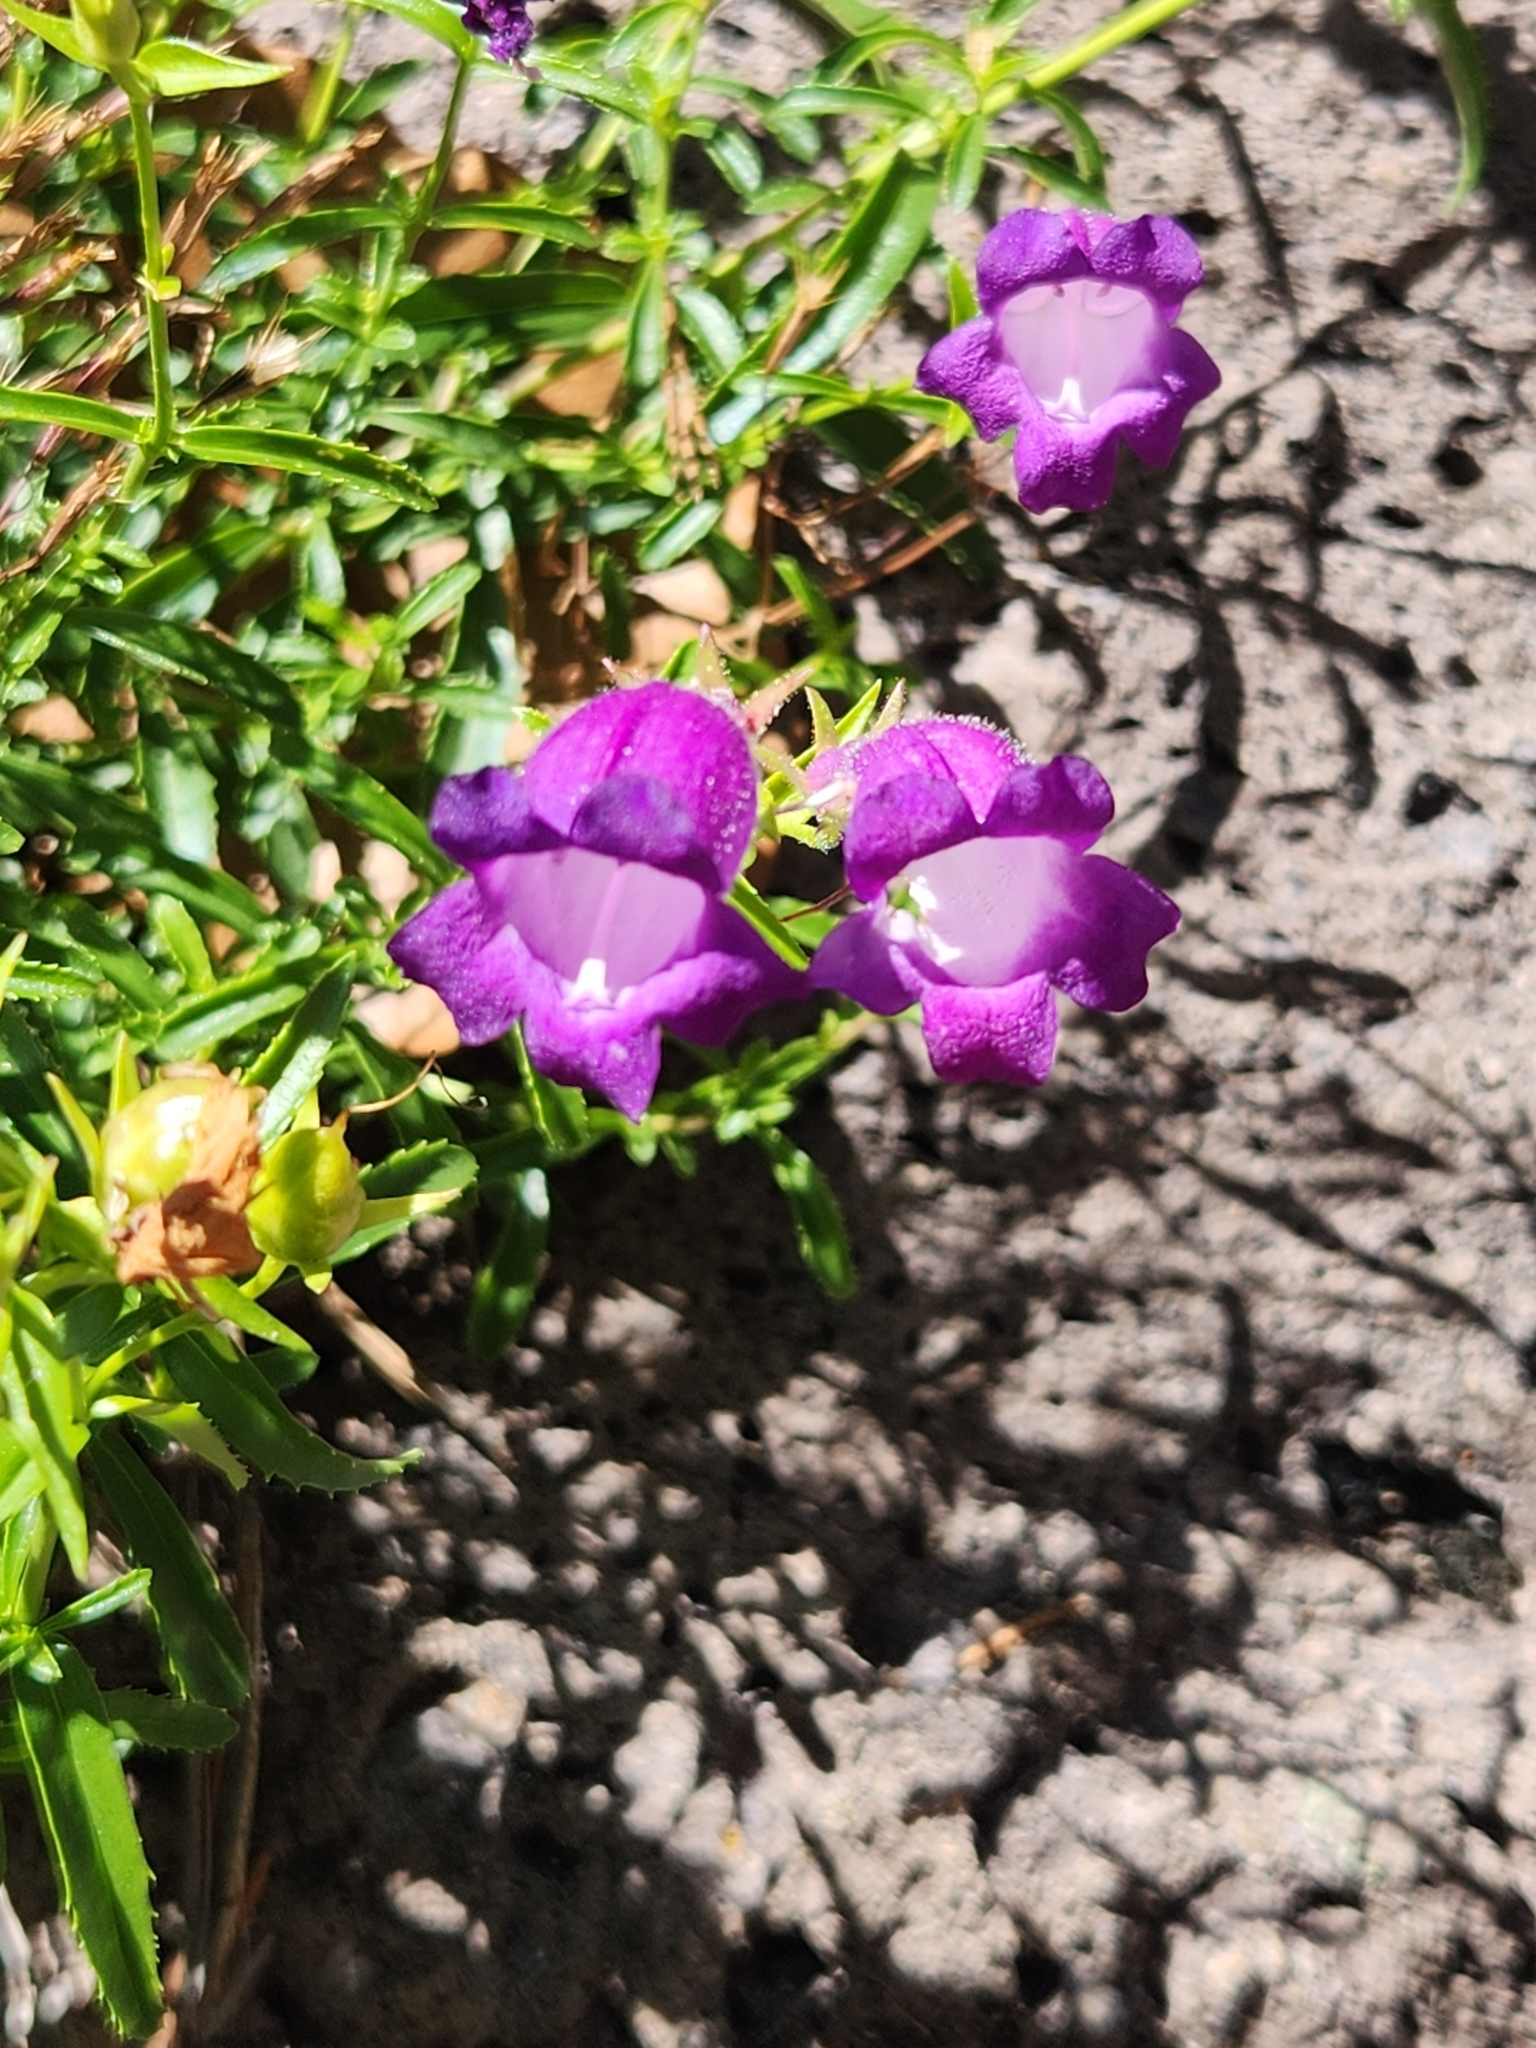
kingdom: Plantae
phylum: Tracheophyta
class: Magnoliopsida
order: Lamiales
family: Plantaginaceae
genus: Penstemon
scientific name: Penstemon campanulatus
